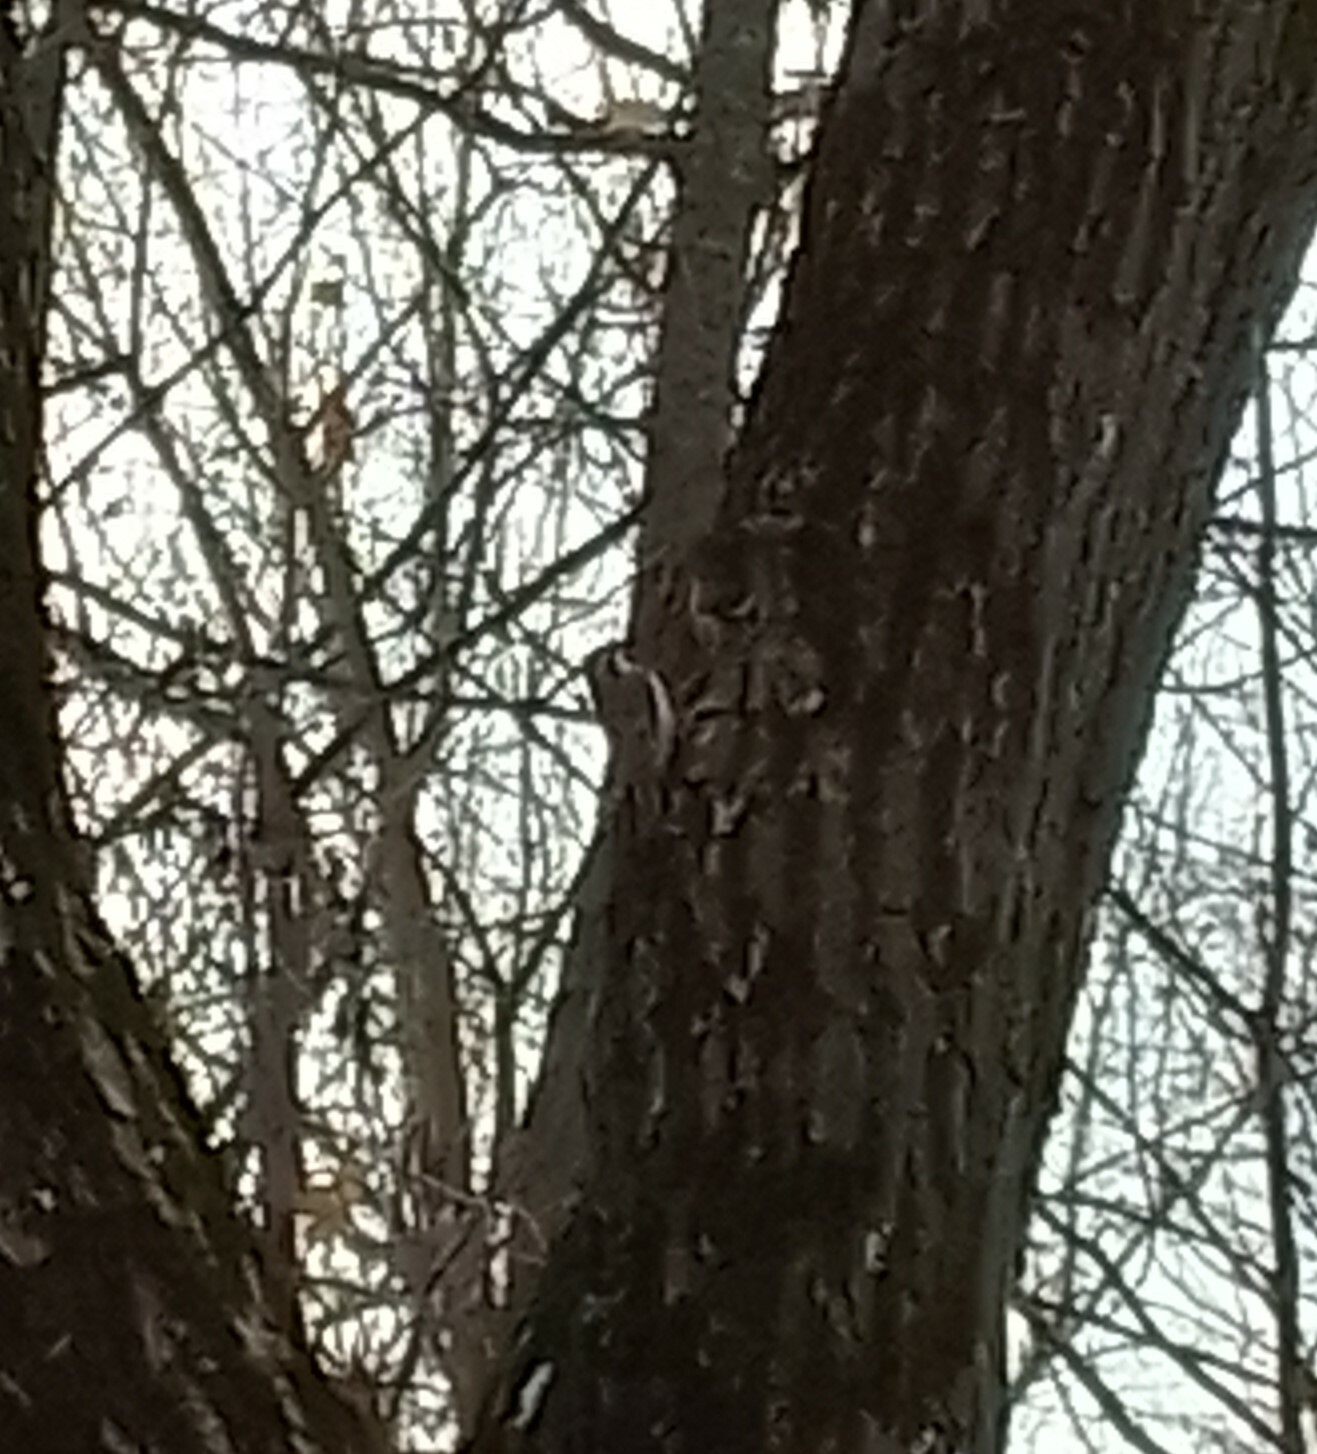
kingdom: Animalia
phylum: Chordata
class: Aves
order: Passeriformes
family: Certhiidae
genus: Certhia
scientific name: Certhia familiaris
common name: Eurasian treecreeper
